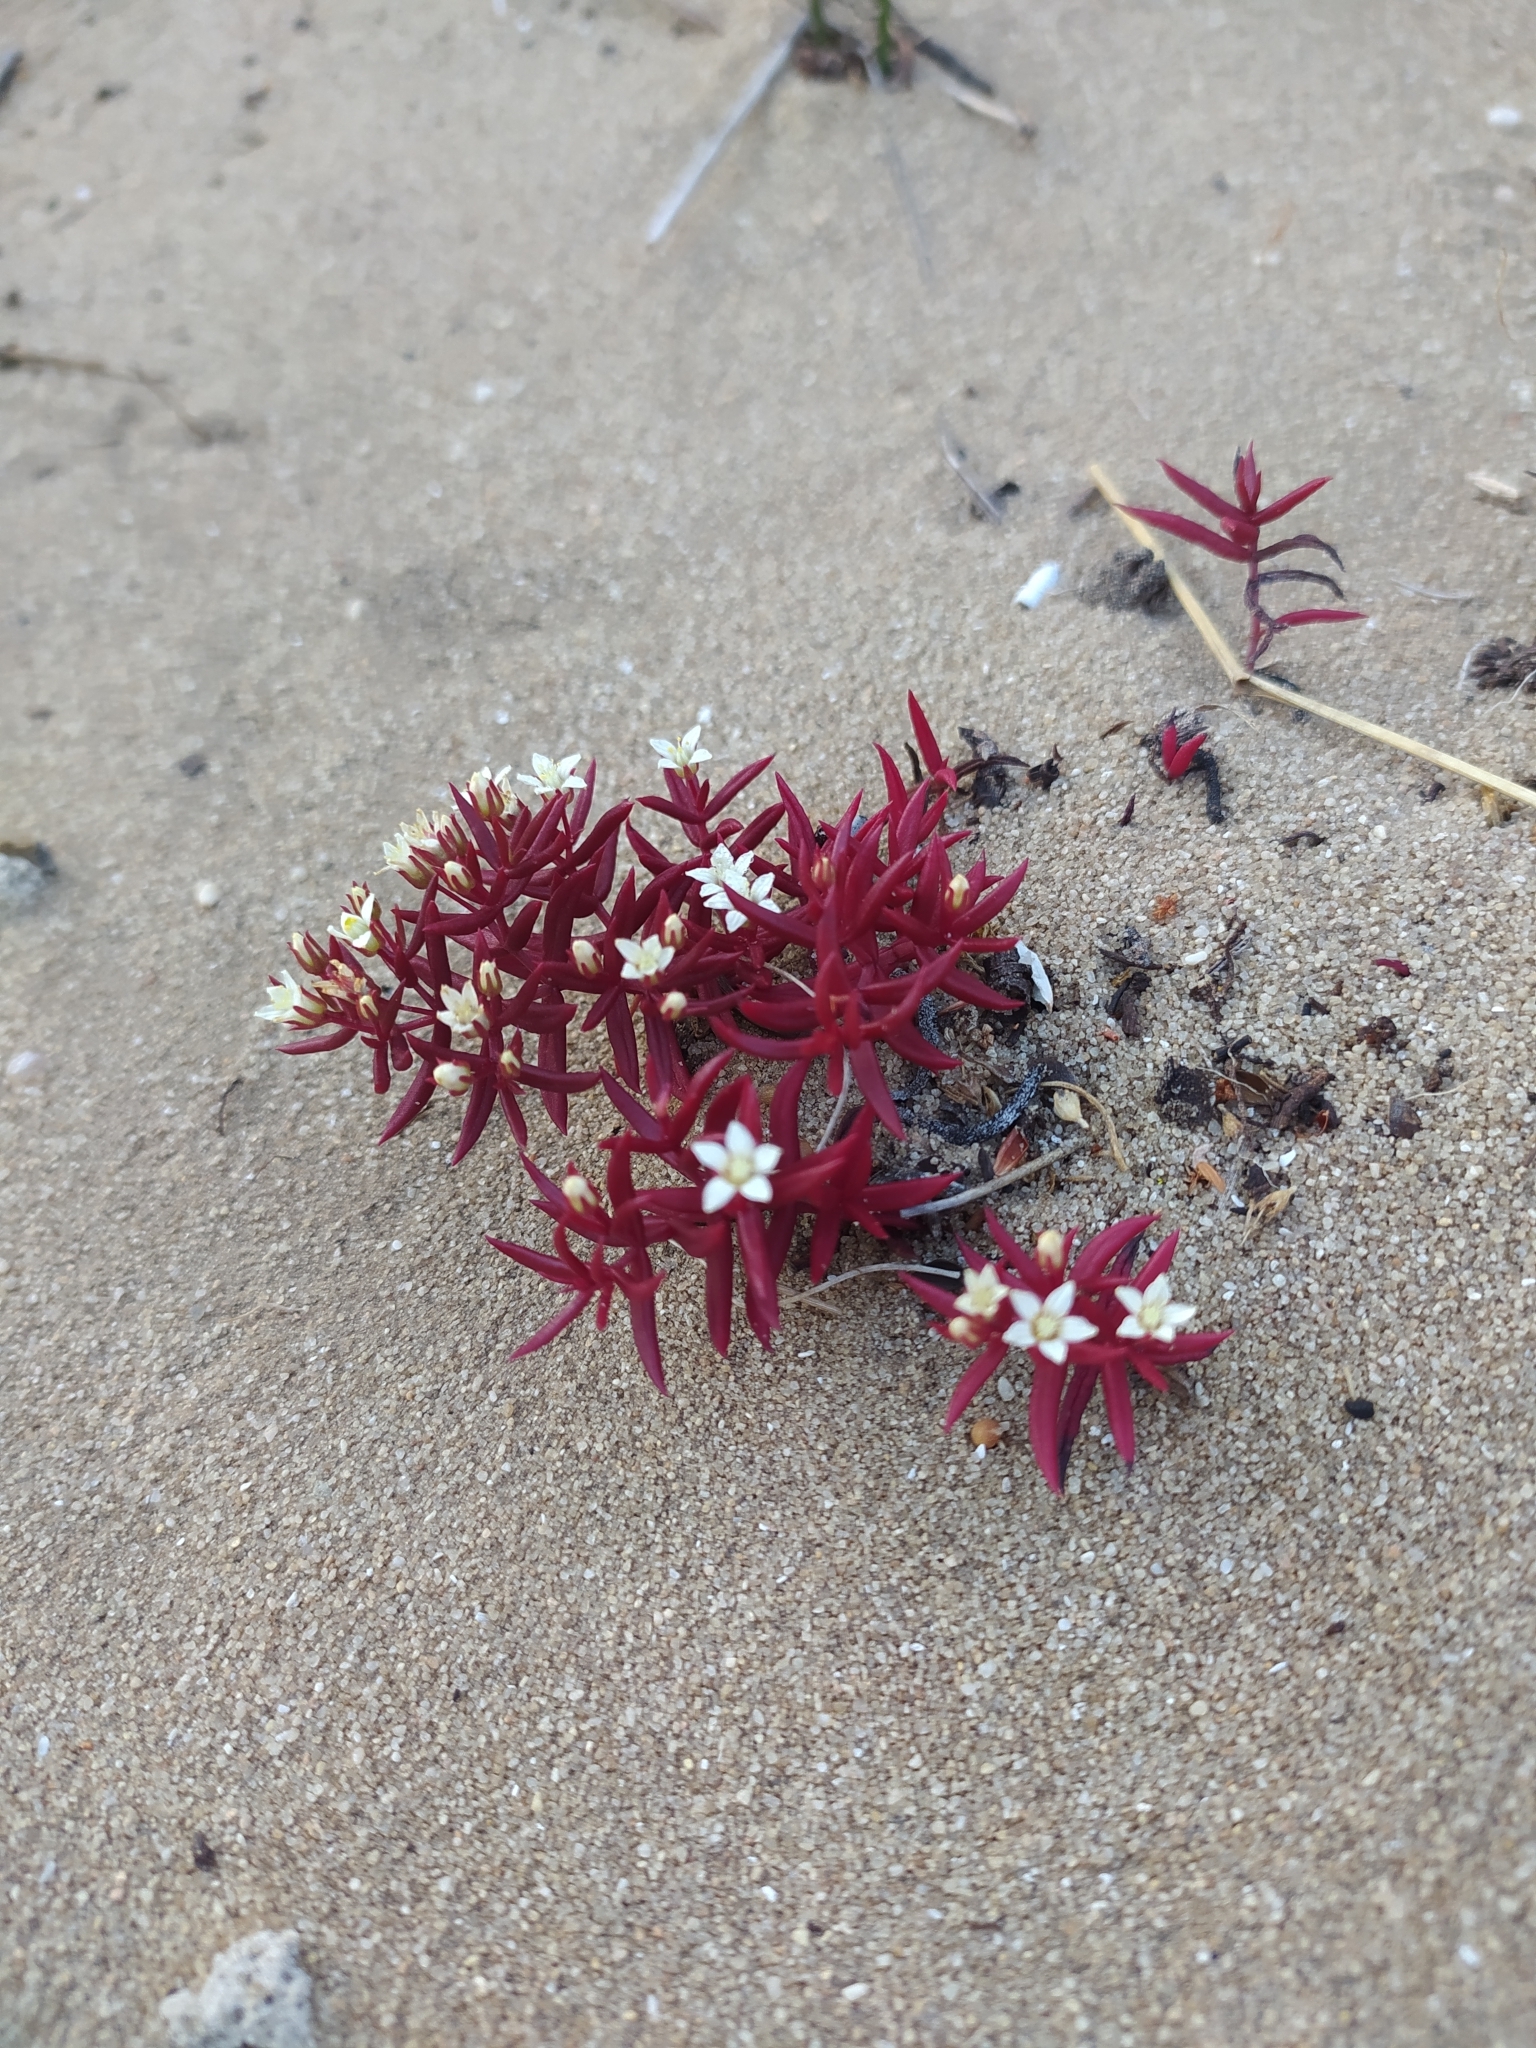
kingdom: Plantae
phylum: Tracheophyta
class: Magnoliopsida
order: Saxifragales
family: Crassulaceae
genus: Crassula
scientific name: Crassula expansa
